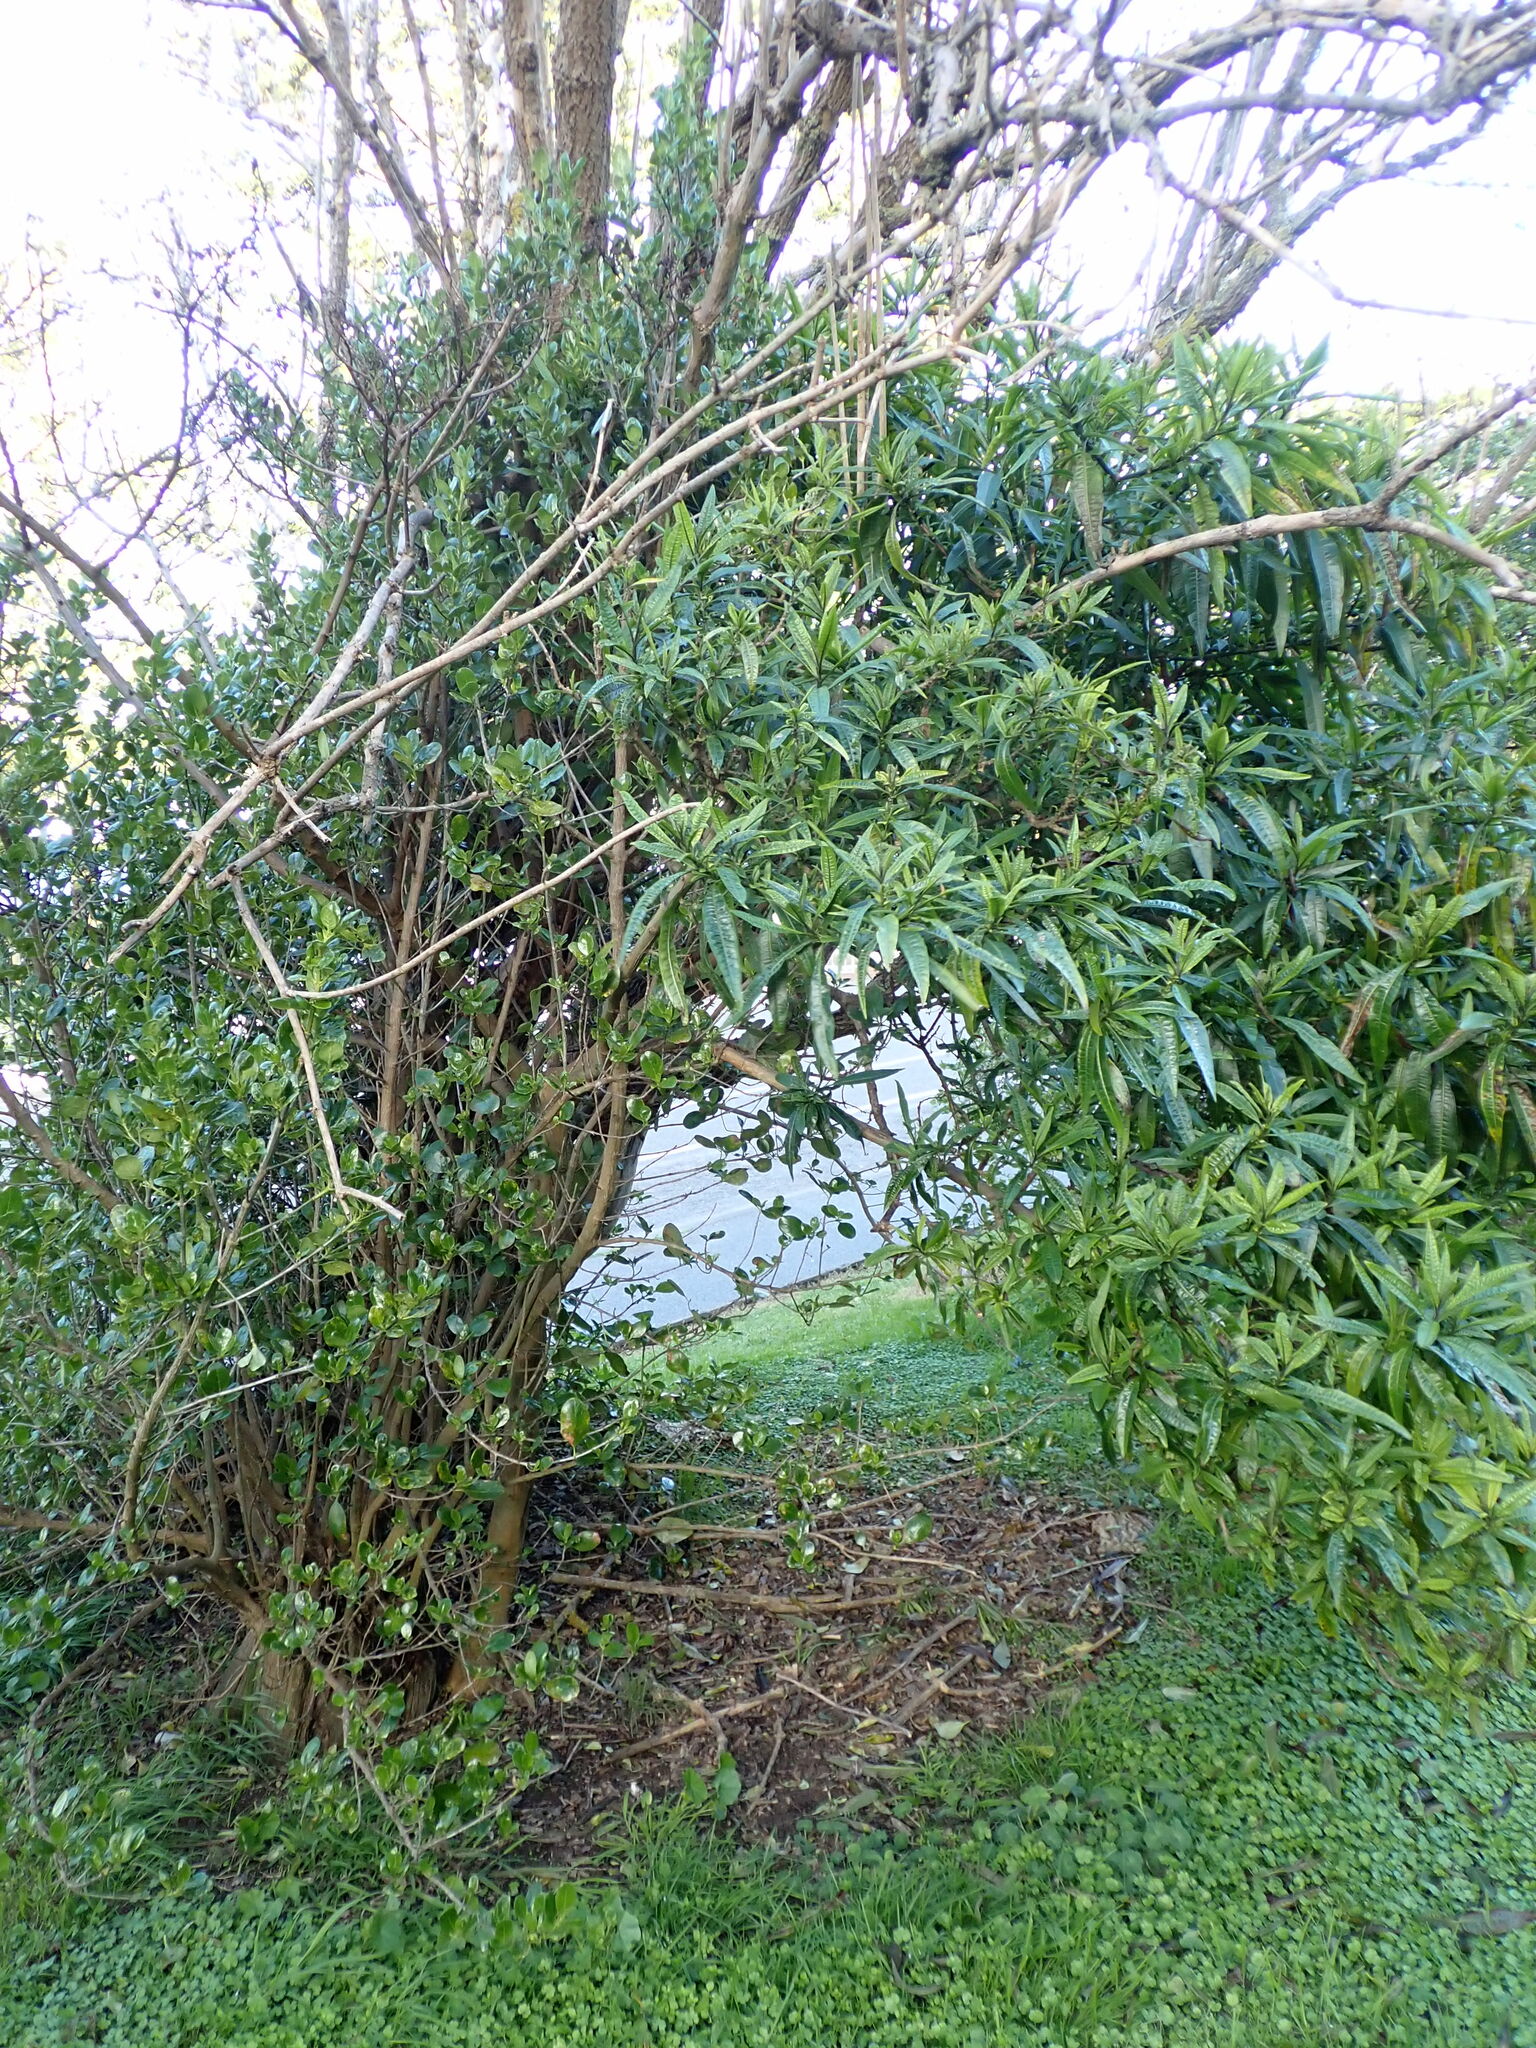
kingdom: Plantae
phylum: Tracheophyta
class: Magnoliopsida
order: Solanales
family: Solanaceae
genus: Solanum
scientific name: Solanum
